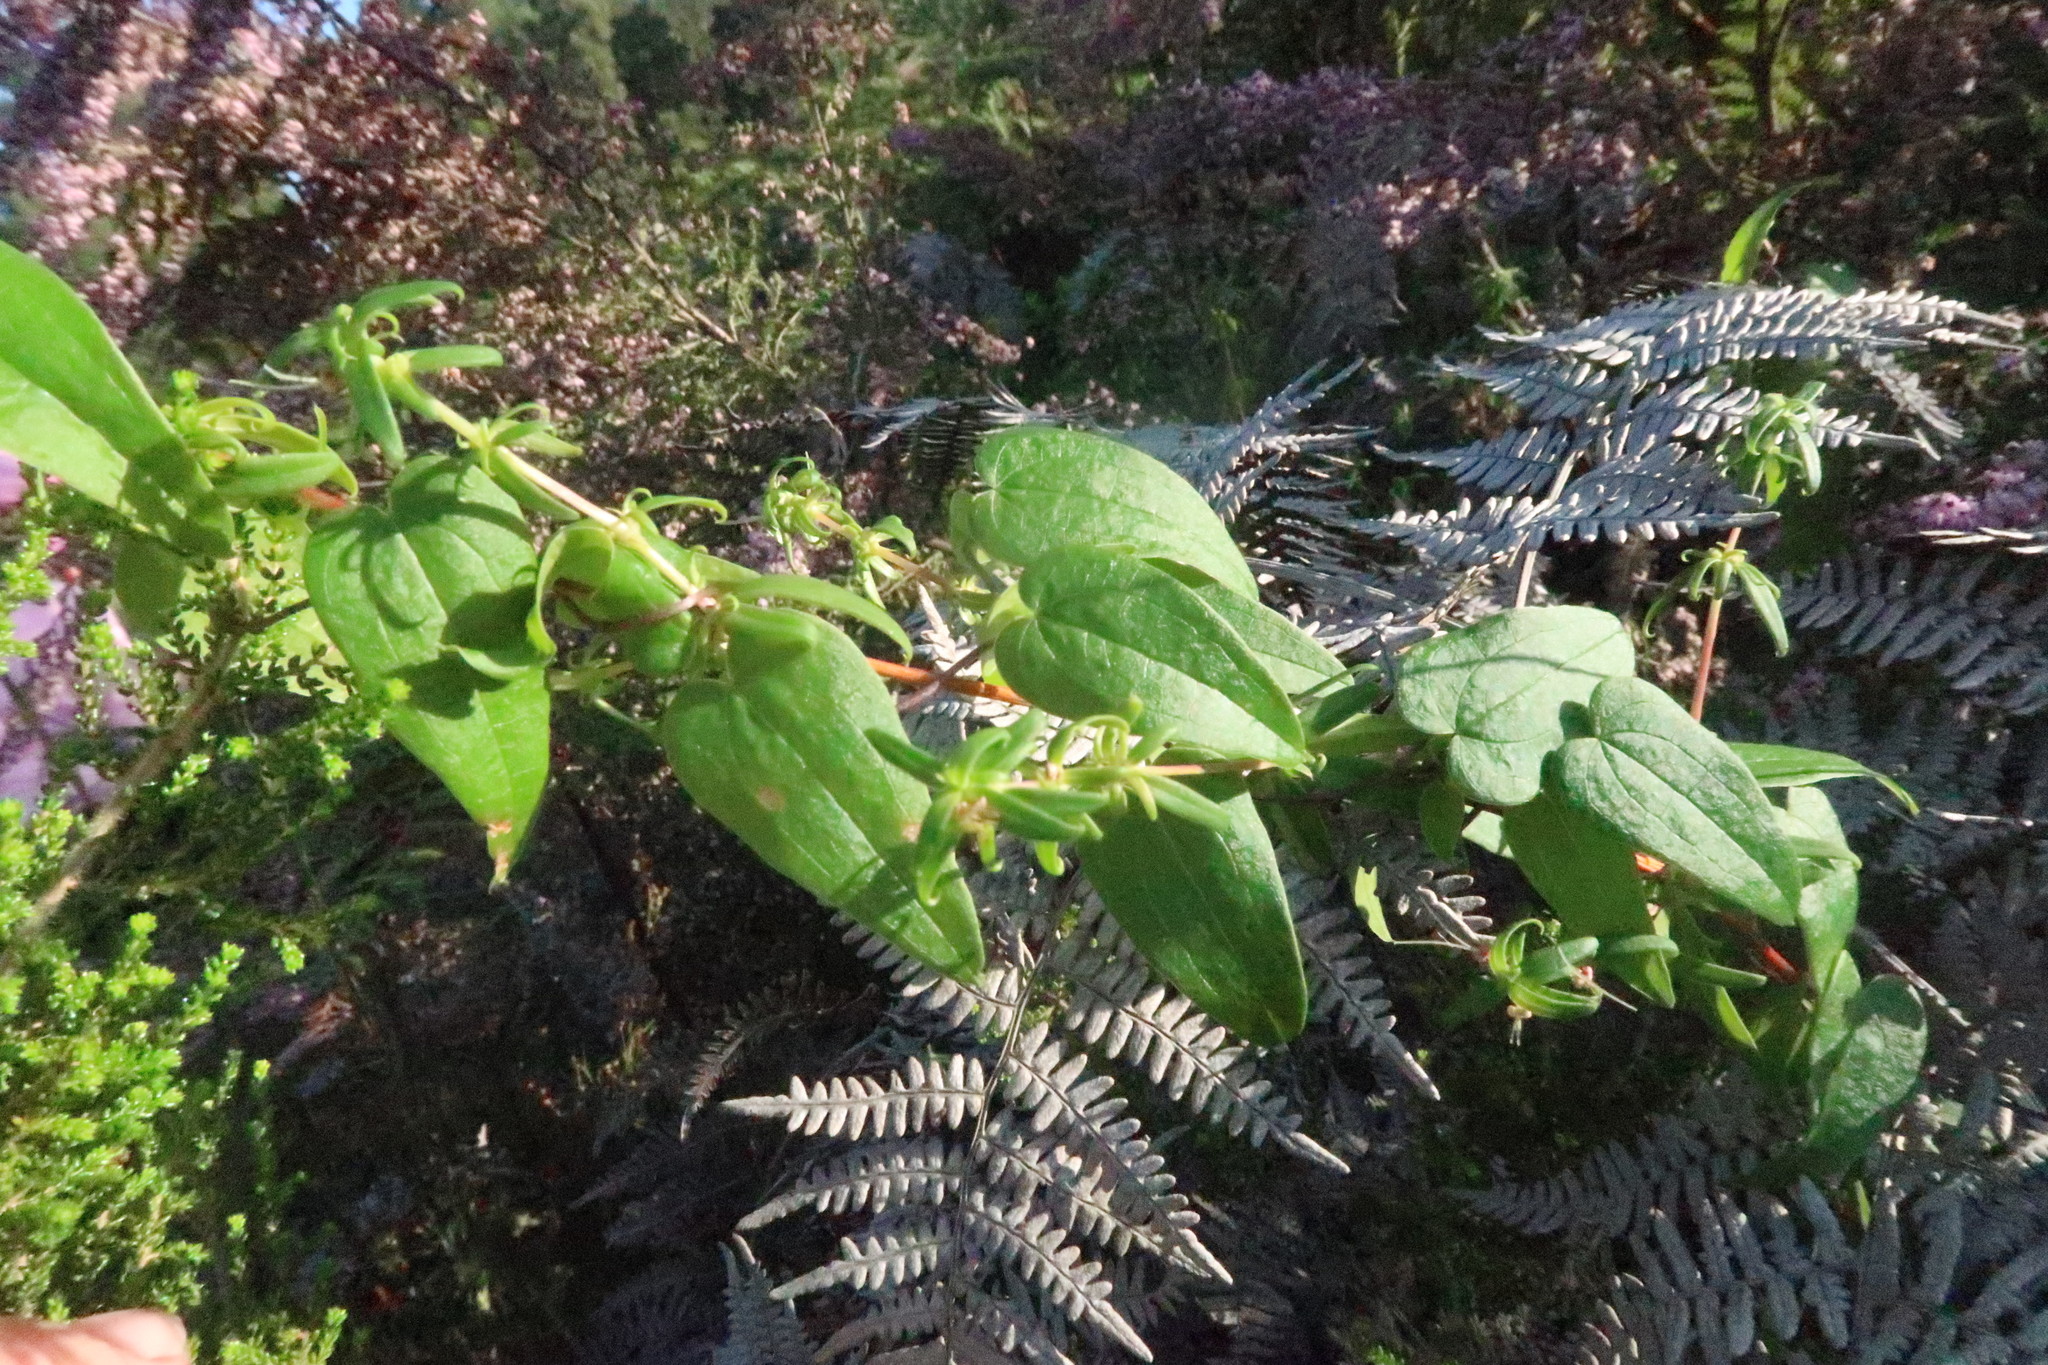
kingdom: Plantae
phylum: Tracheophyta
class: Liliopsida
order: Dioscoreales
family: Dioscoreaceae
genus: Dioscorea
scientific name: Dioscorea burchellii
